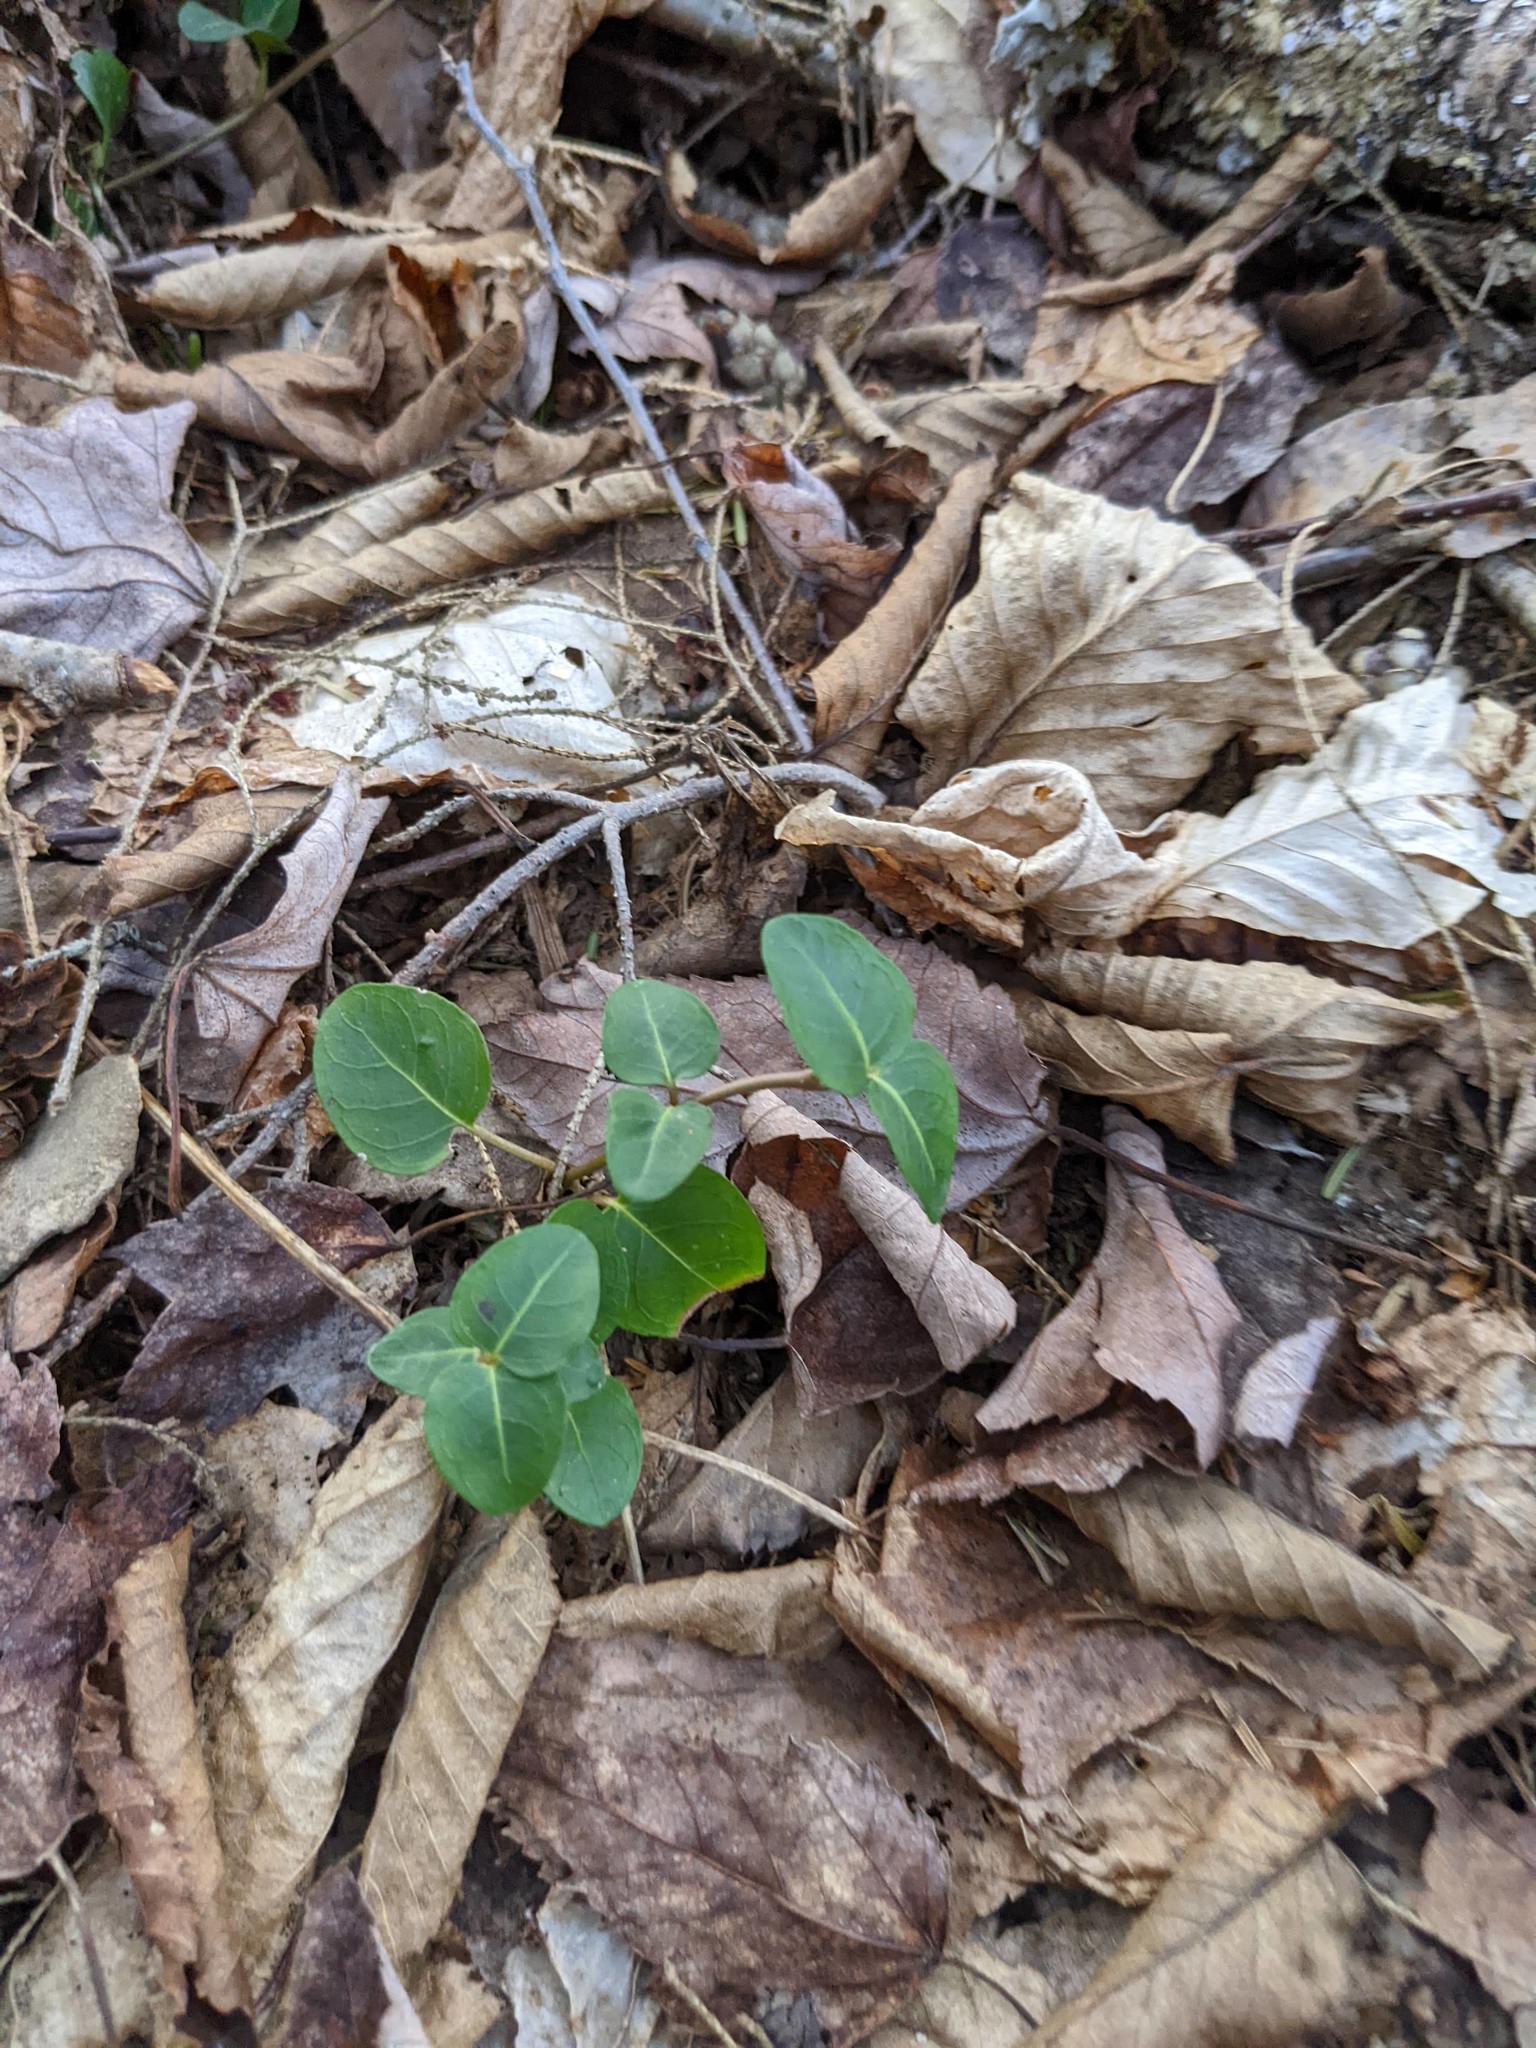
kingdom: Plantae
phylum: Tracheophyta
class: Magnoliopsida
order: Gentianales
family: Rubiaceae
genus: Mitchella
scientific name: Mitchella repens
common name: Partridge-berry
